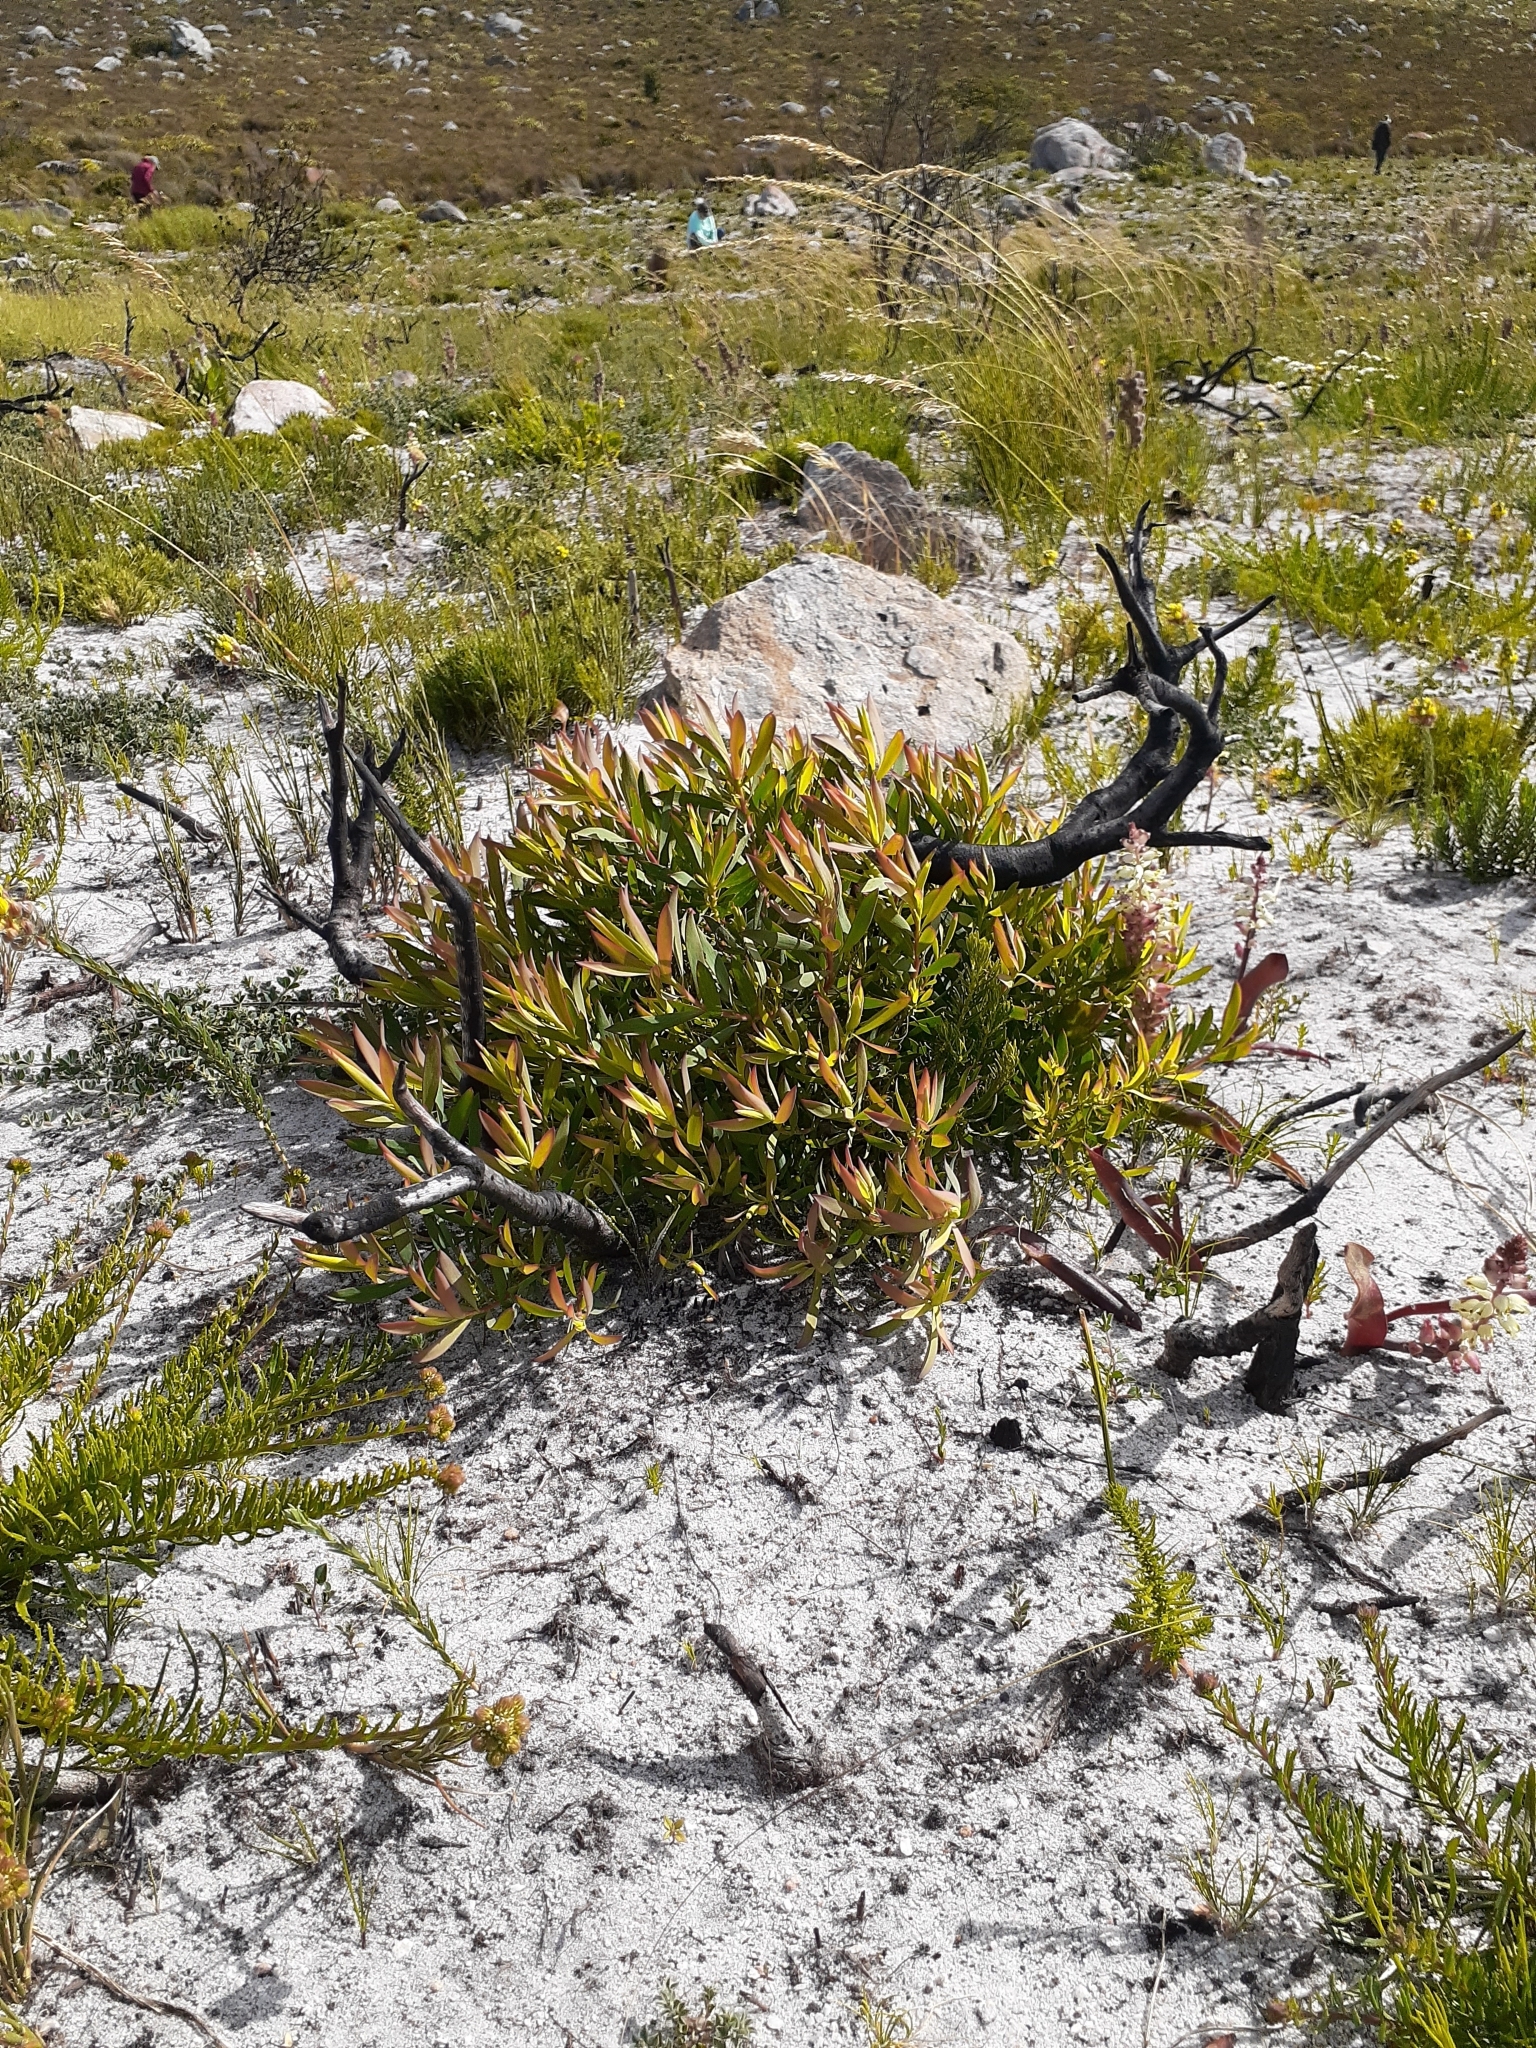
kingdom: Plantae
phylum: Tracheophyta
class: Magnoliopsida
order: Proteales
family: Proteaceae
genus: Leucadendron
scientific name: Leucadendron salignum
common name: Common sunshine conebush
